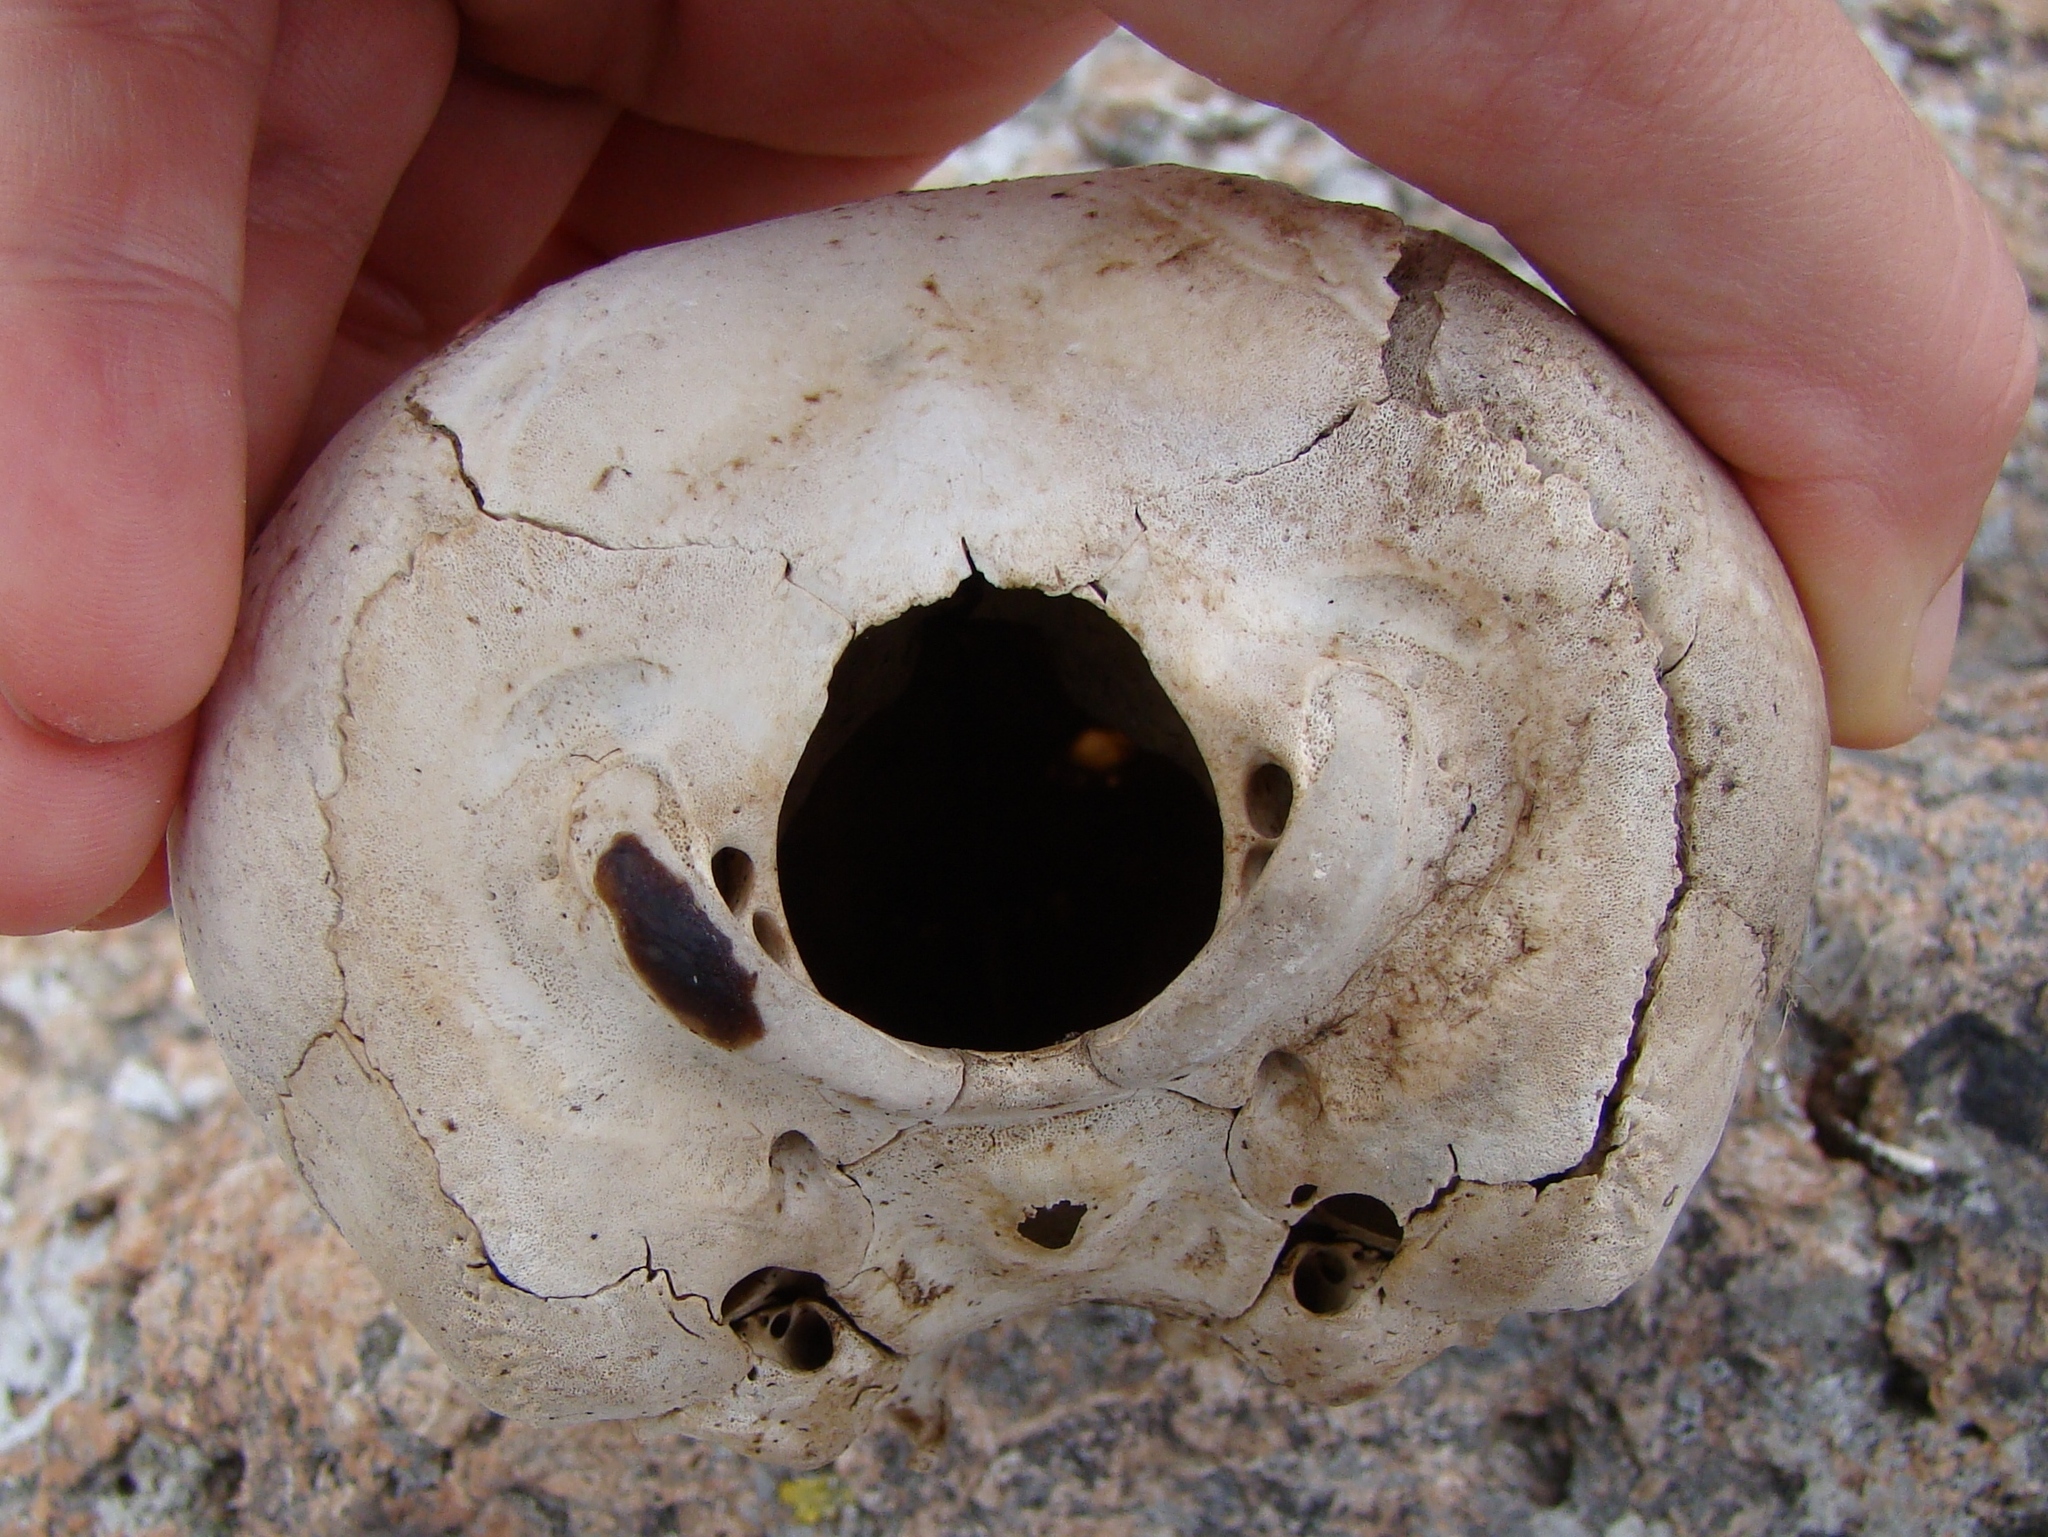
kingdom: Animalia
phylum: Chordata
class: Mammalia
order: Carnivora
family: Otariidae
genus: Arctocephalus
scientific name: Arctocephalus forsteri
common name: New zealand fur seal
